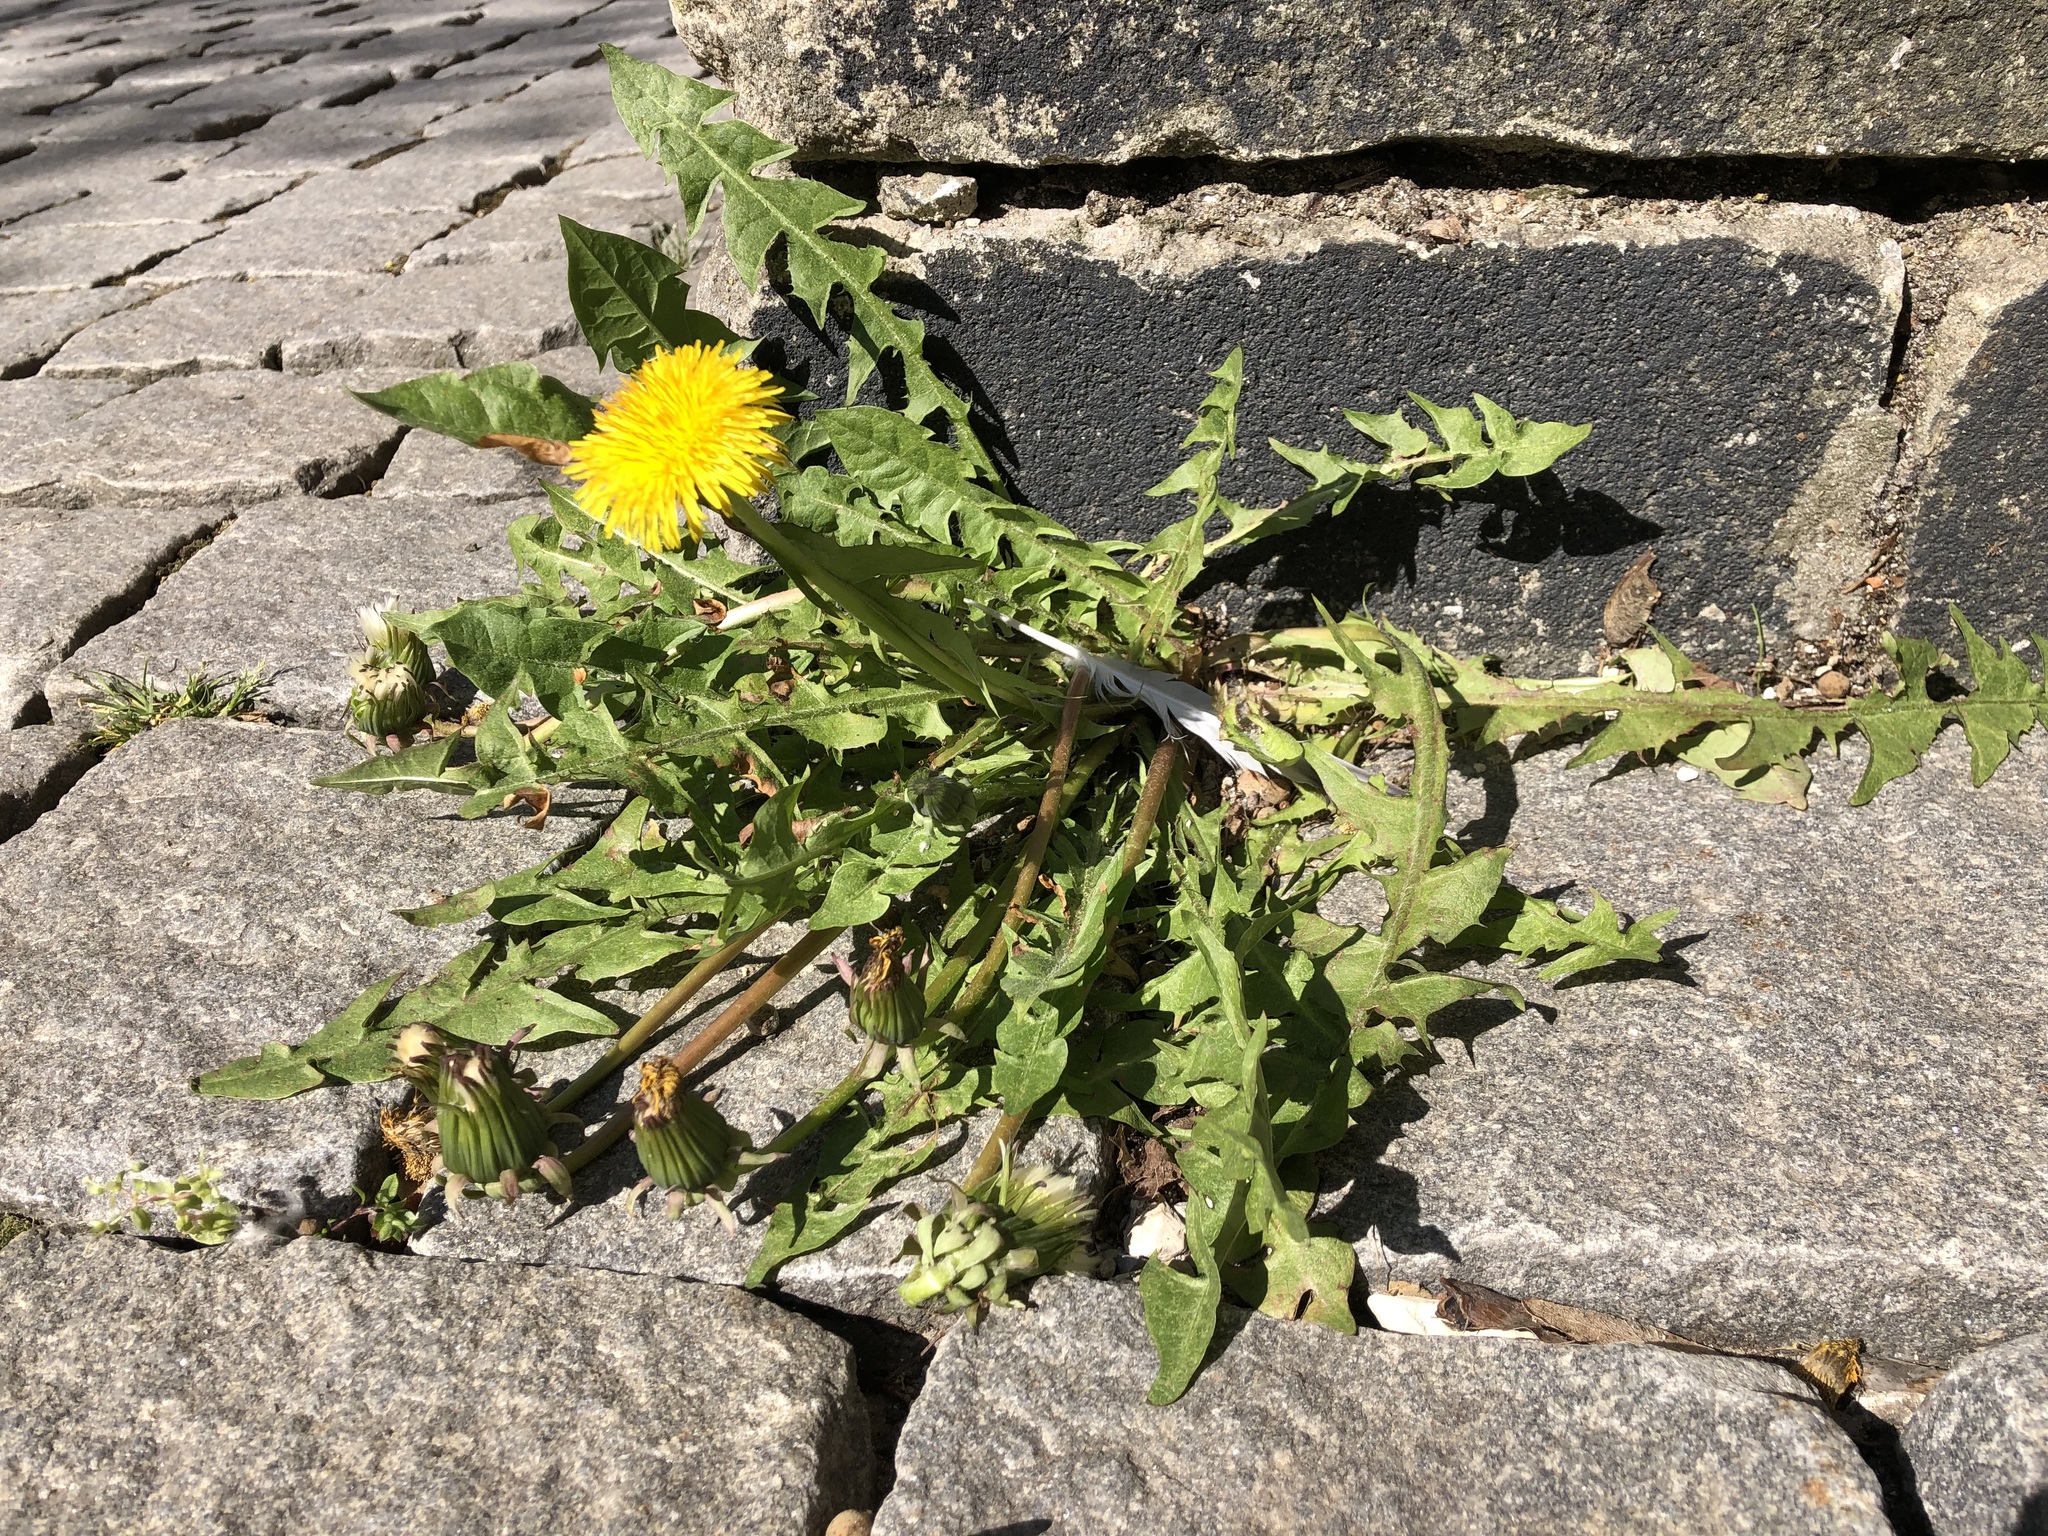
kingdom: Plantae
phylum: Tracheophyta
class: Magnoliopsida
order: Asterales
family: Asteraceae
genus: Taraxacum
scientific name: Taraxacum officinale
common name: Common dandelion
